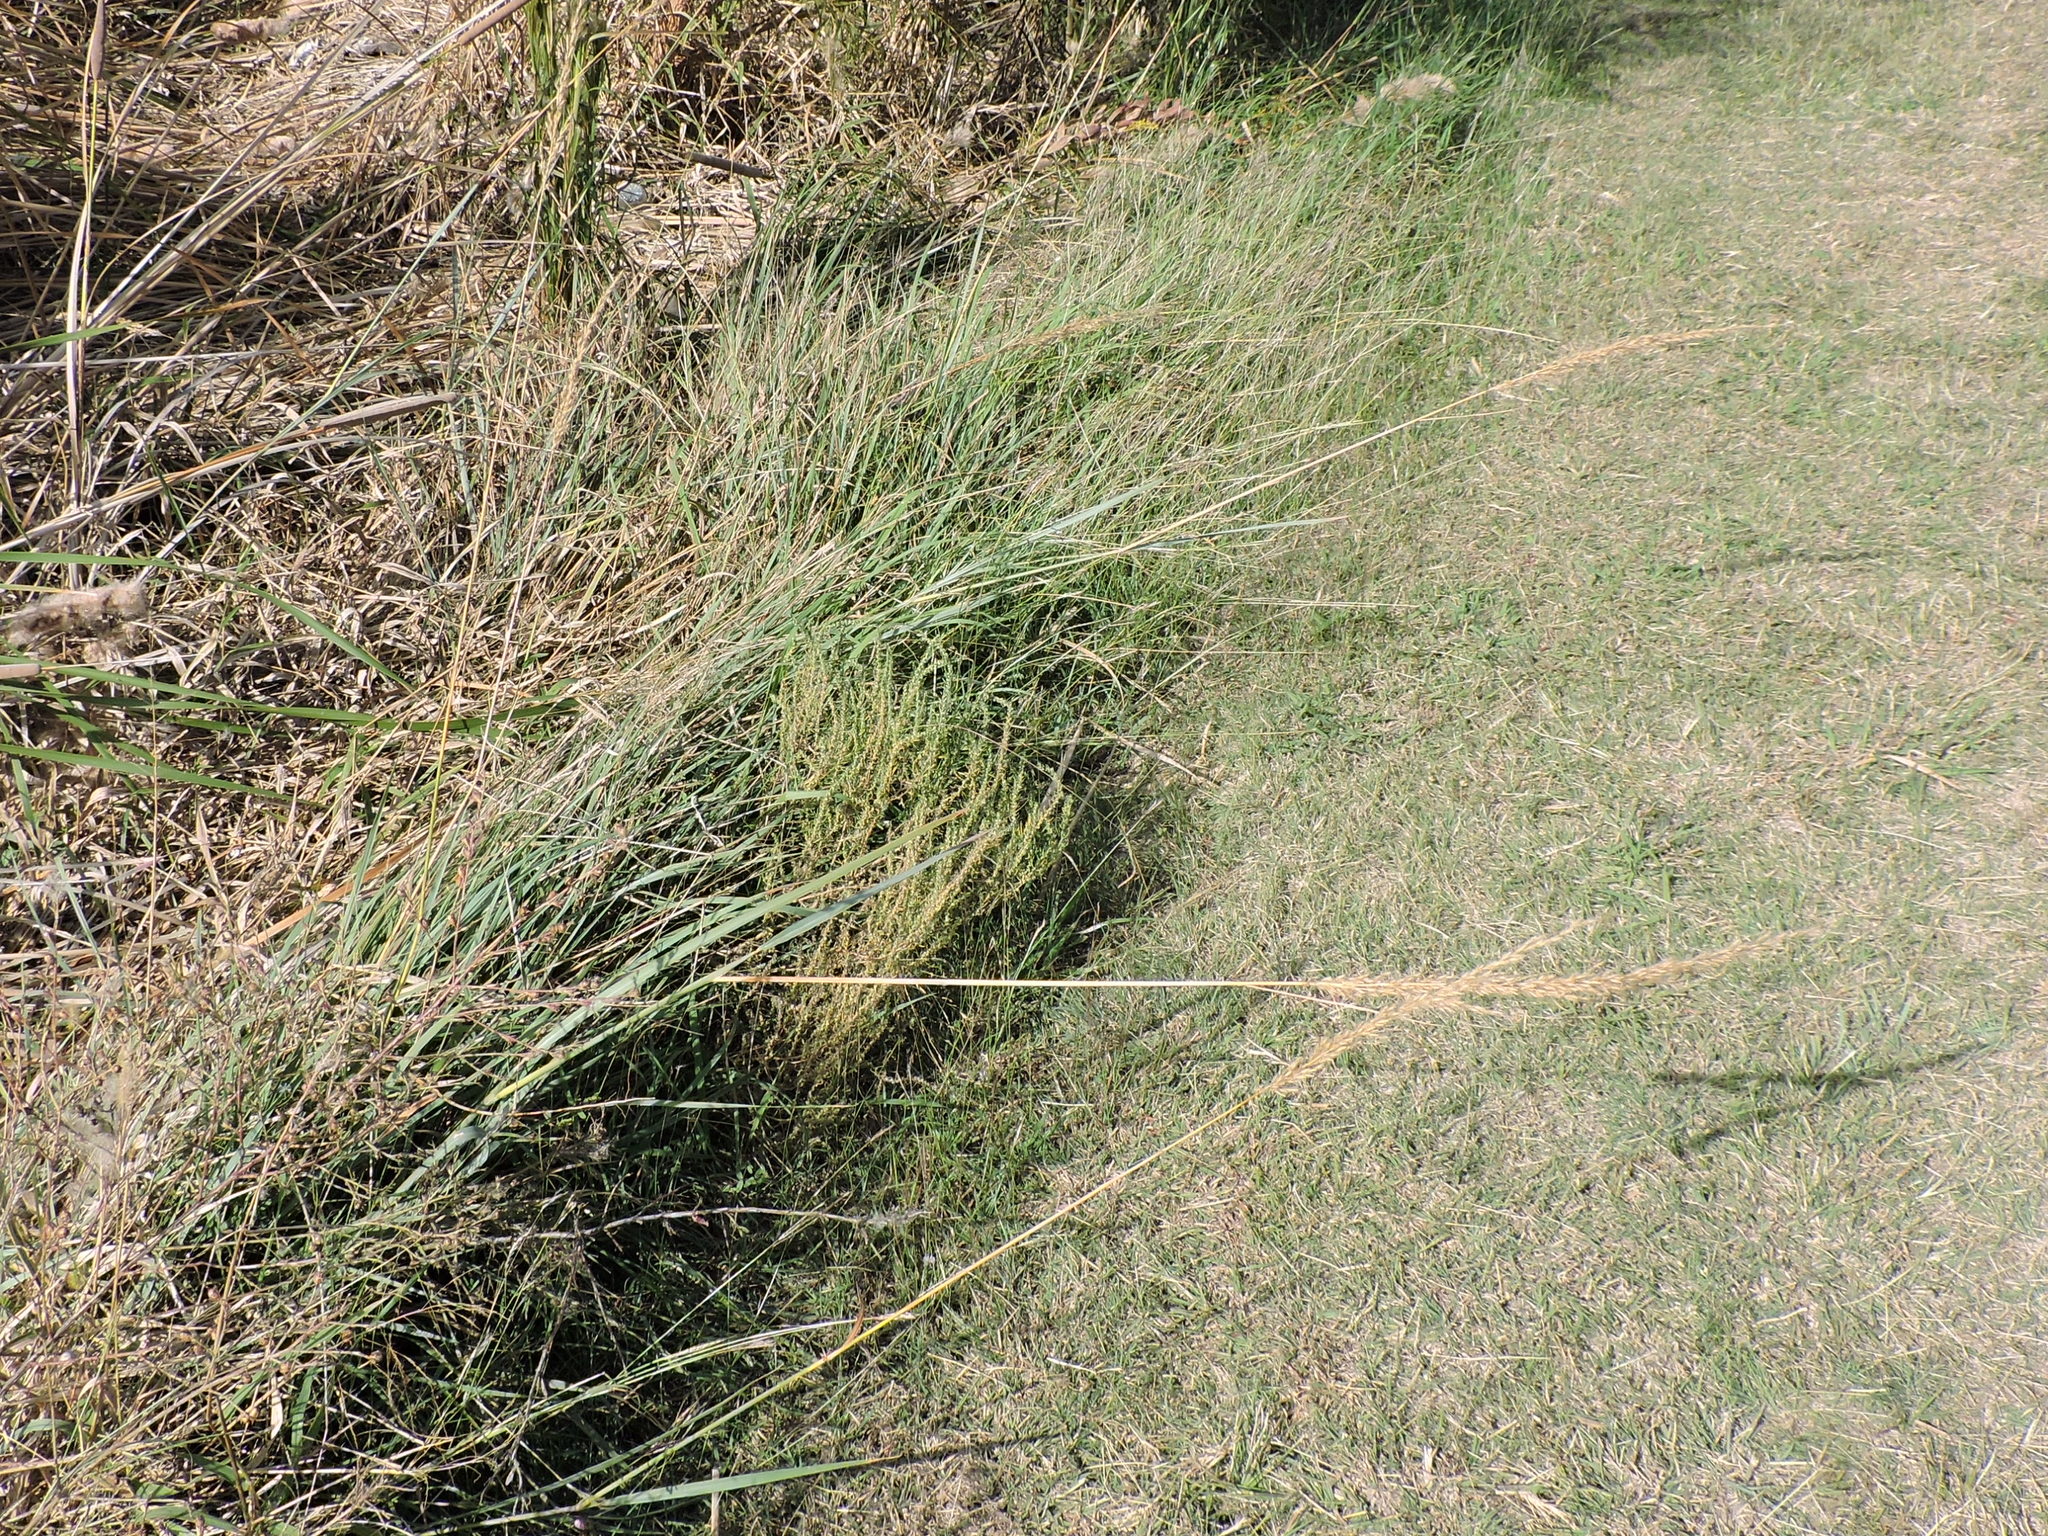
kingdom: Plantae
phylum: Tracheophyta
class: Liliopsida
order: Poales
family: Poaceae
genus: Sorghastrum
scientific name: Sorghastrum nutans
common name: Indian grass
